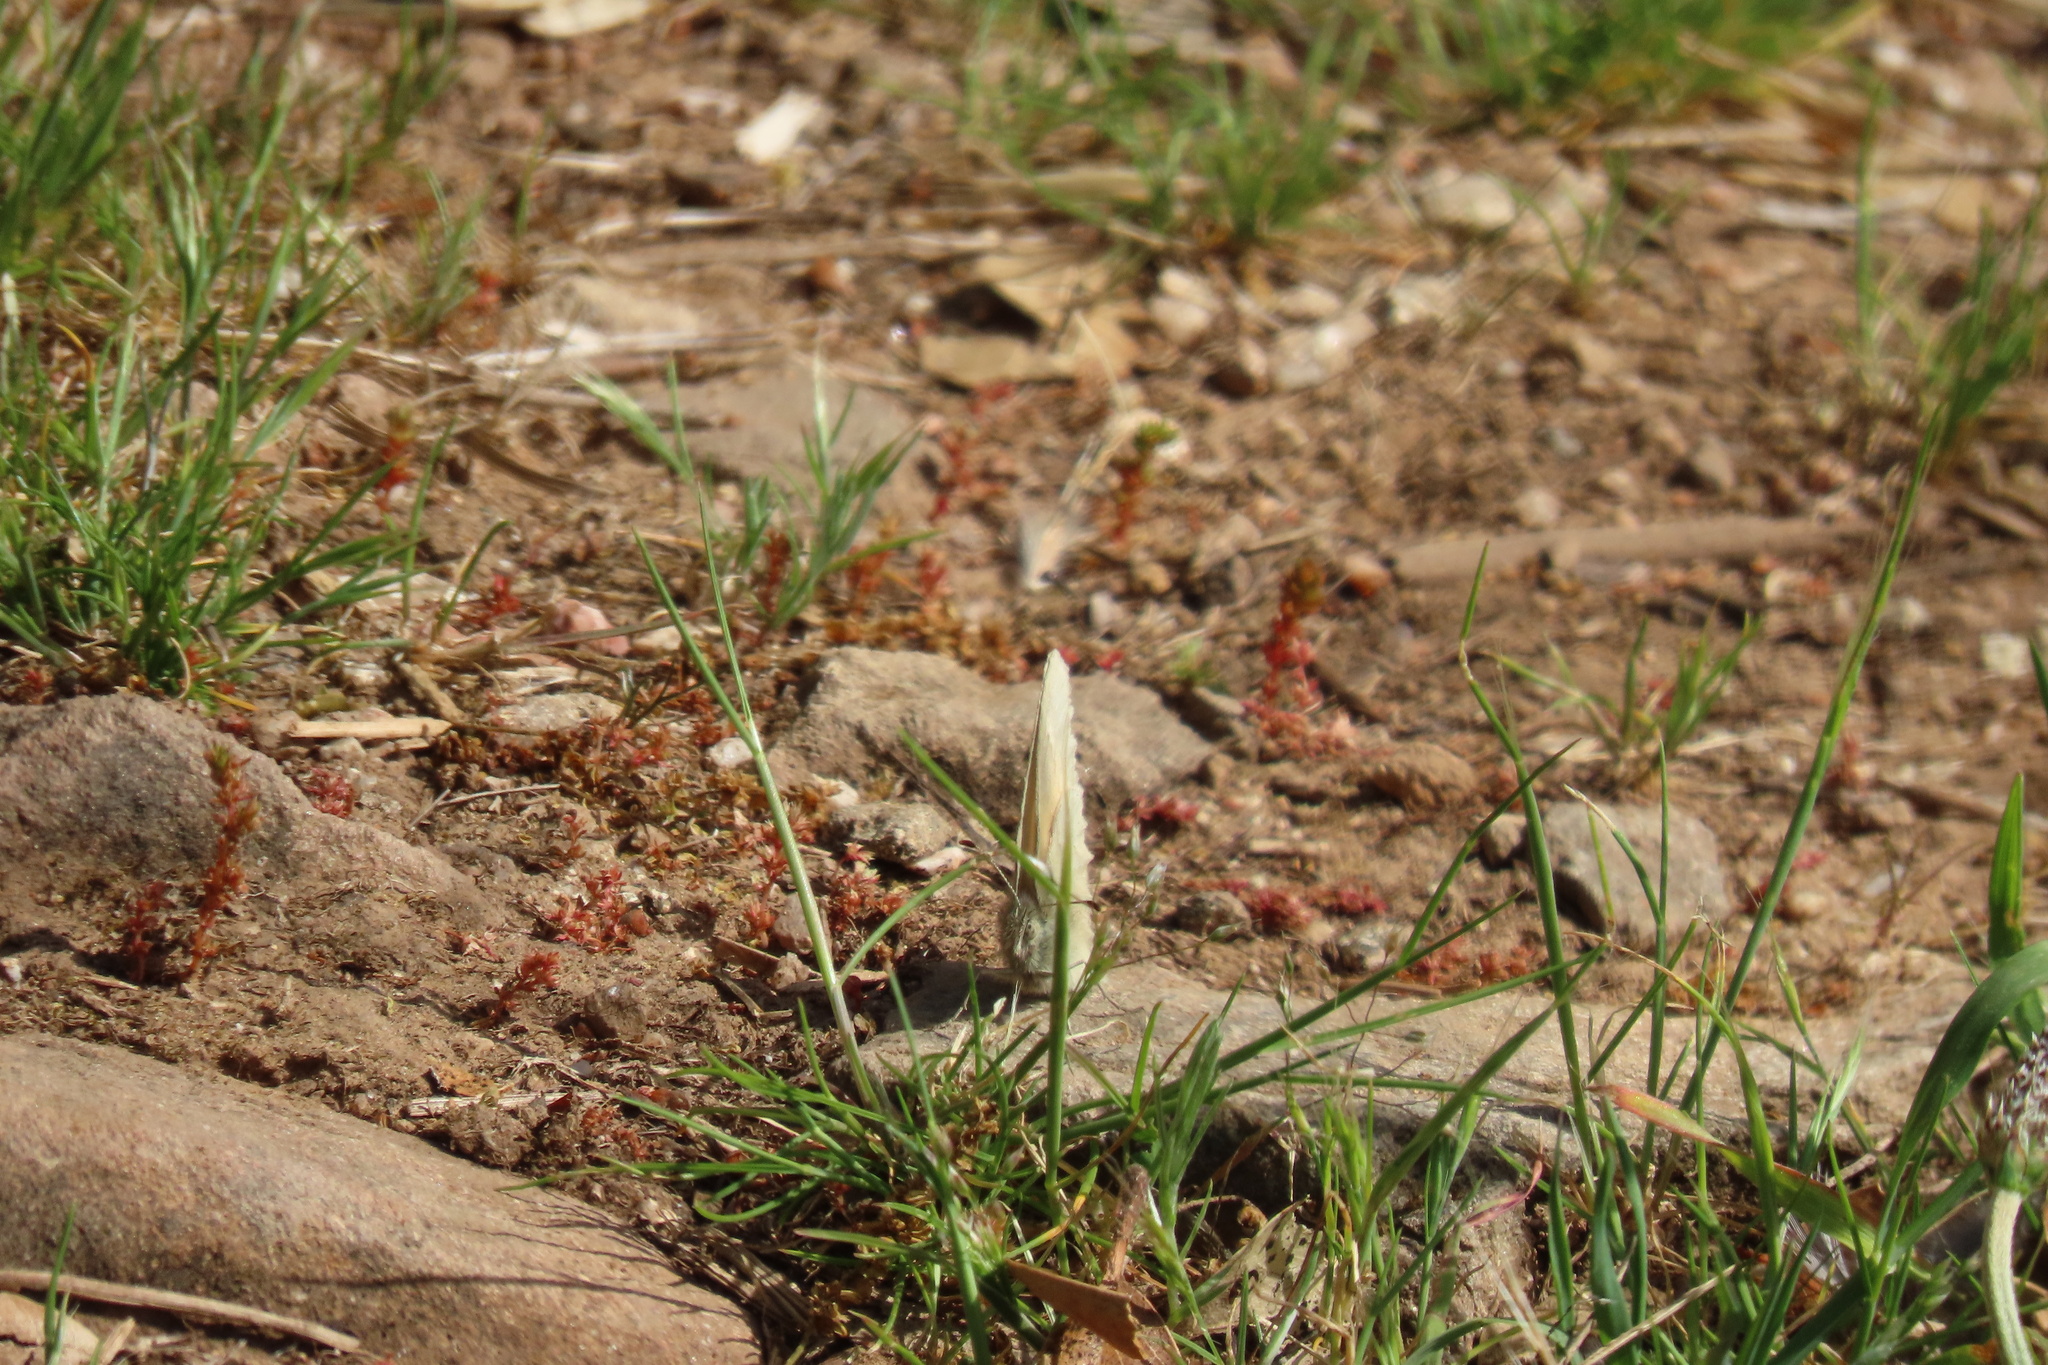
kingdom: Animalia
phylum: Arthropoda
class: Insecta
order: Lepidoptera
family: Nymphalidae
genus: Coenonympha
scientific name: Coenonympha california
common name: Common ringlet
